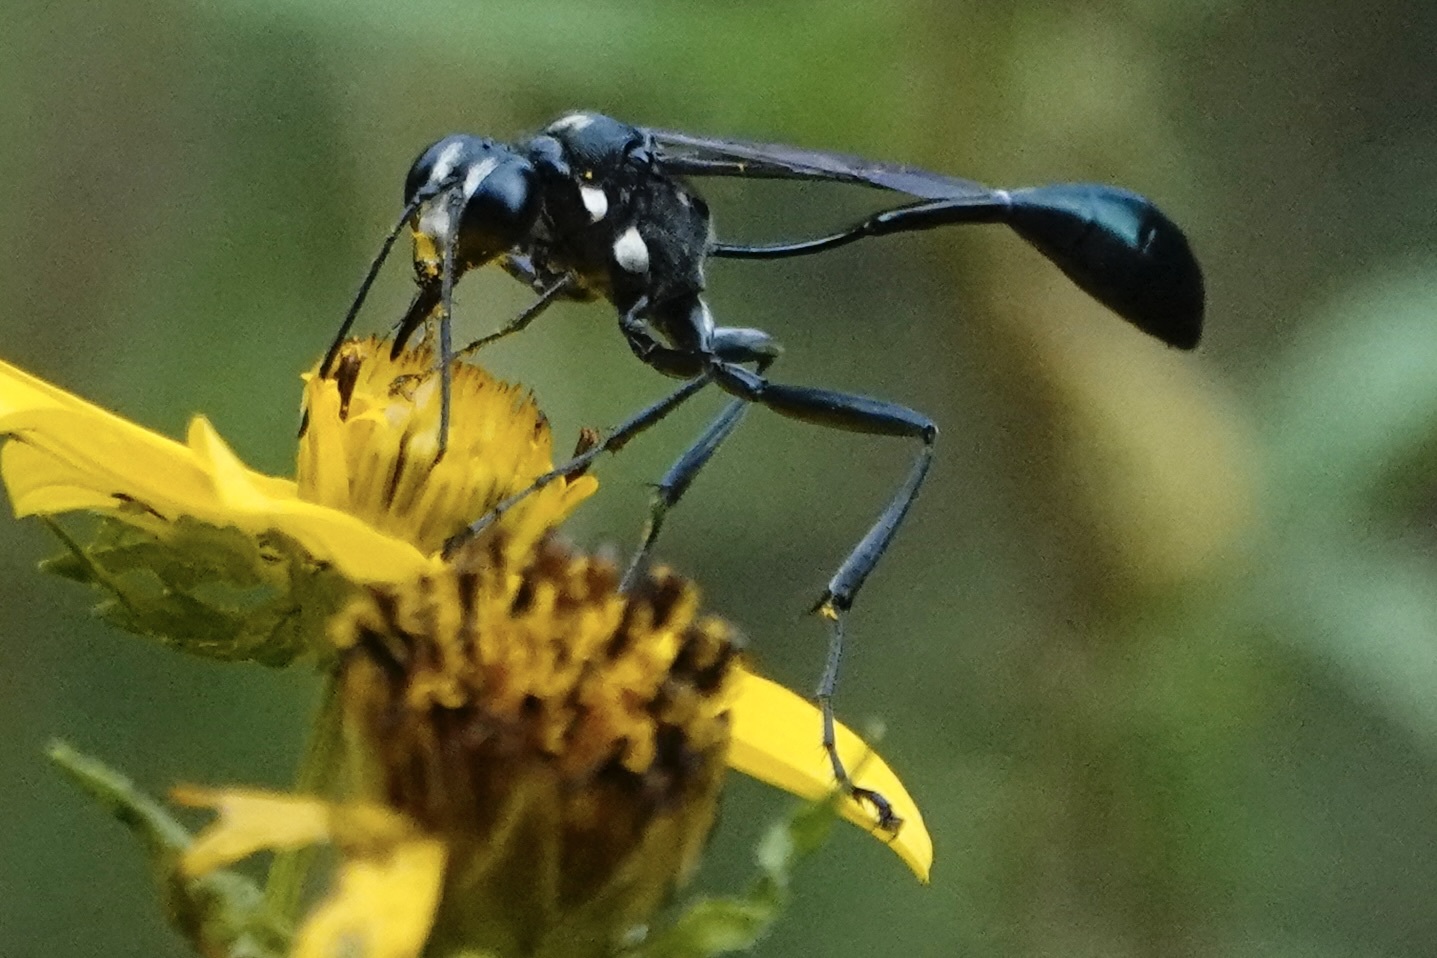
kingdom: Animalia
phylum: Arthropoda
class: Insecta
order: Hymenoptera
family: Sphecidae
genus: Eremnophila
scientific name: Eremnophila aureonotata
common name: Gold-marked thread-waisted wasp
